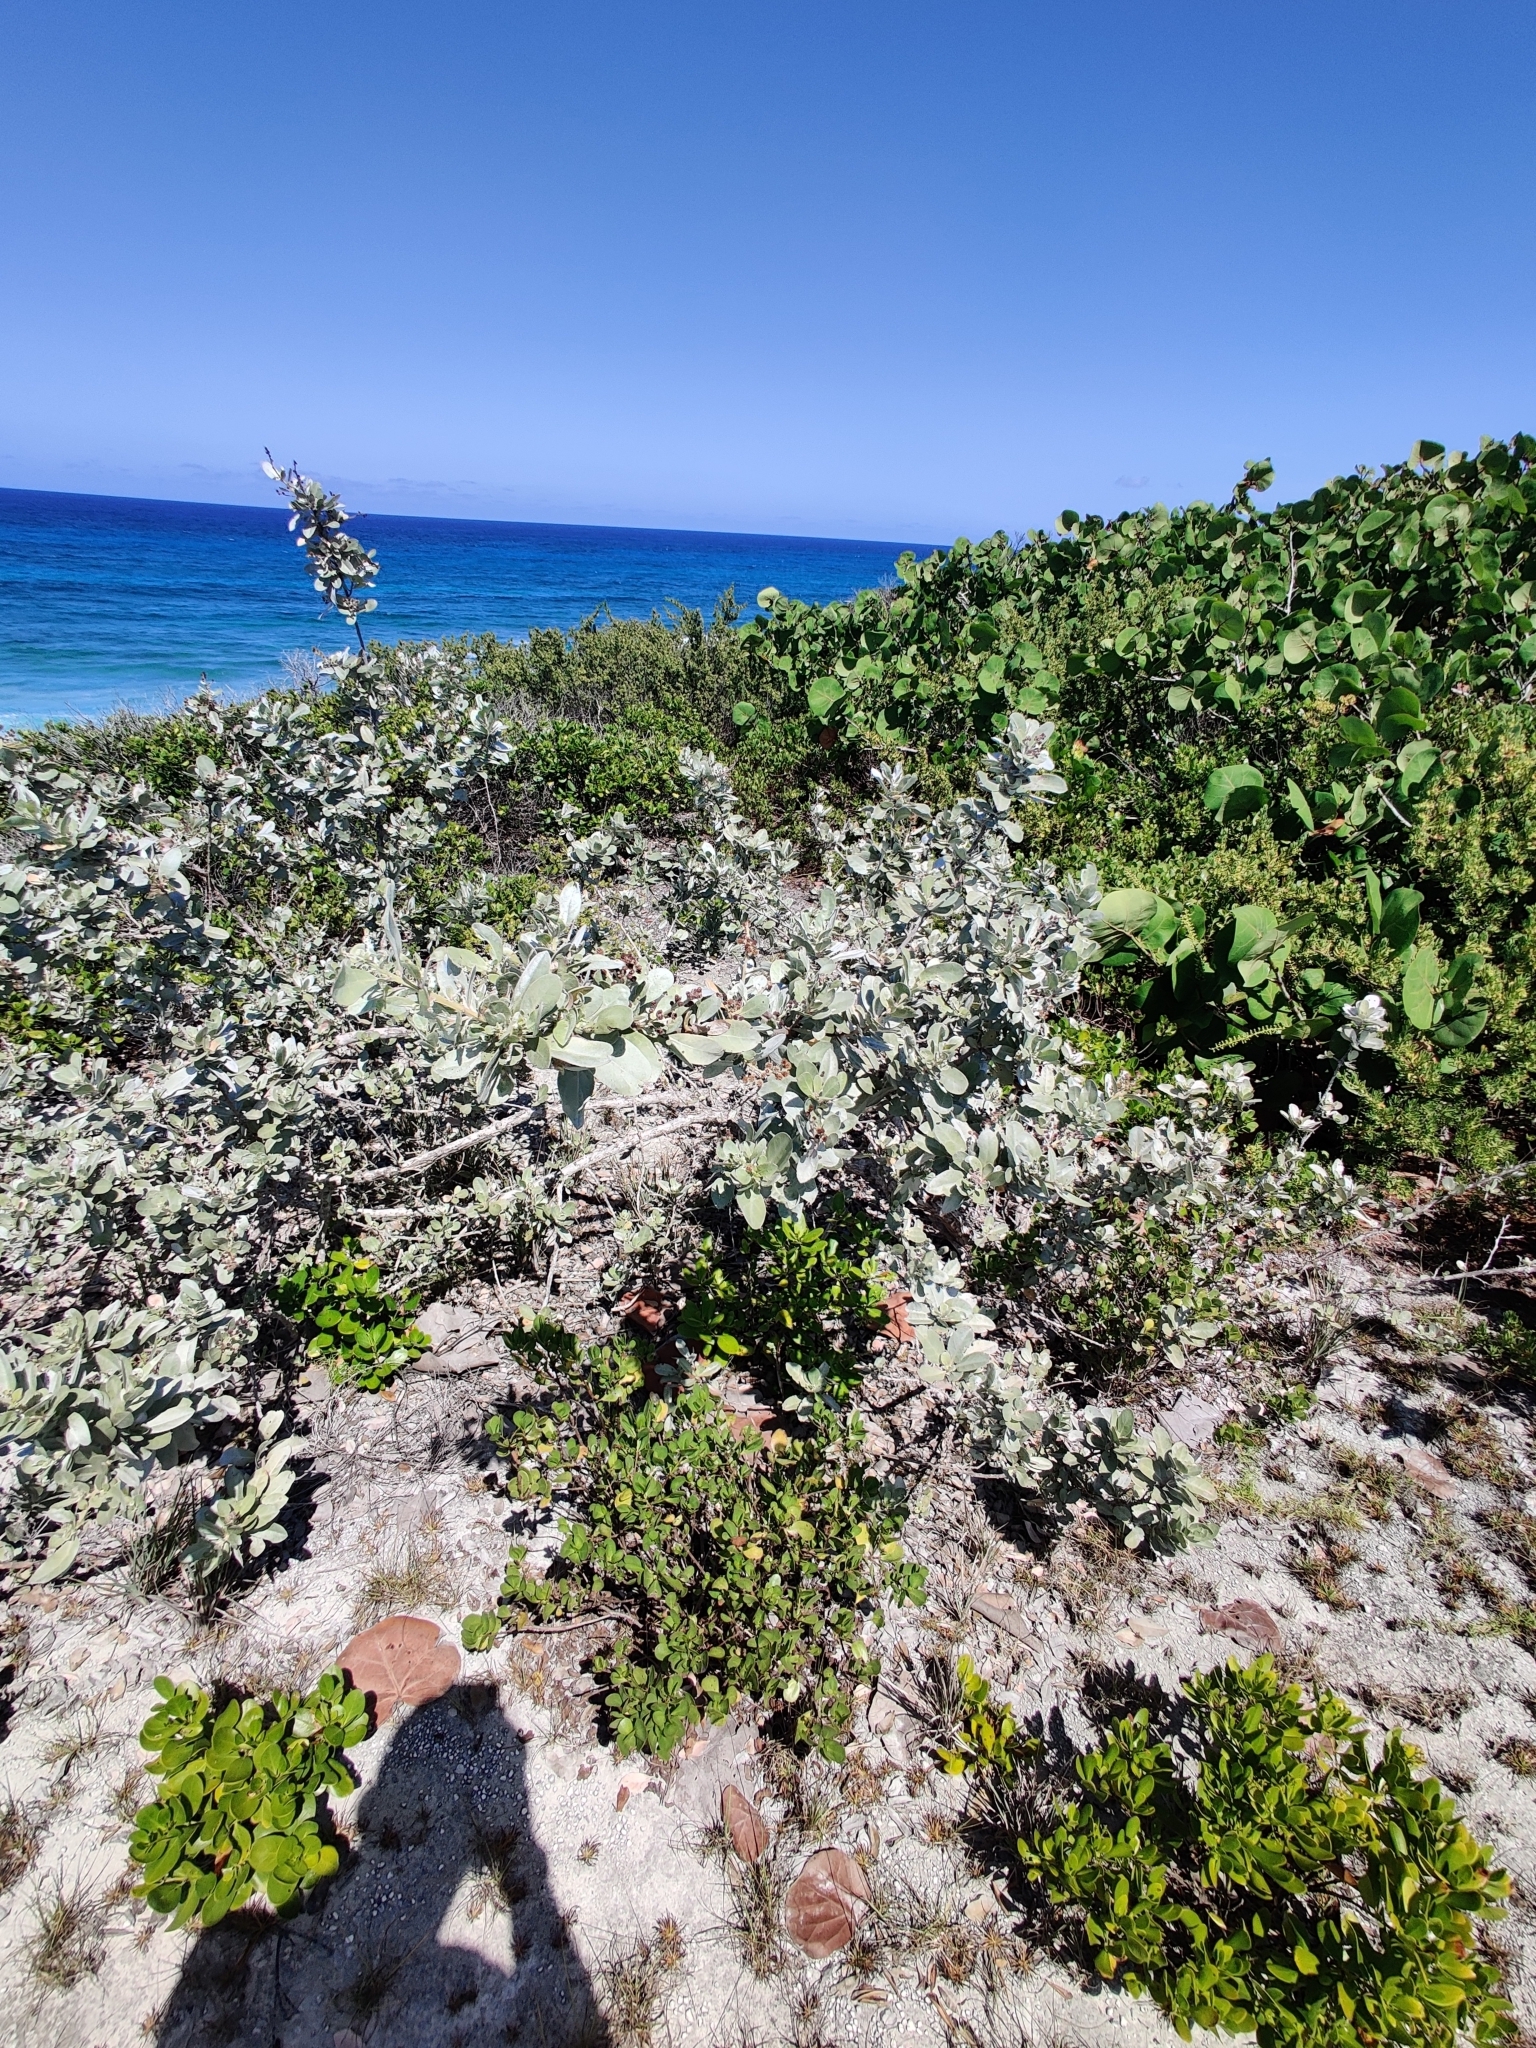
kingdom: Plantae
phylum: Tracheophyta
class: Magnoliopsida
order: Myrtales
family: Combretaceae
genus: Conocarpus
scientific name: Conocarpus erectus
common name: Button mangrove
